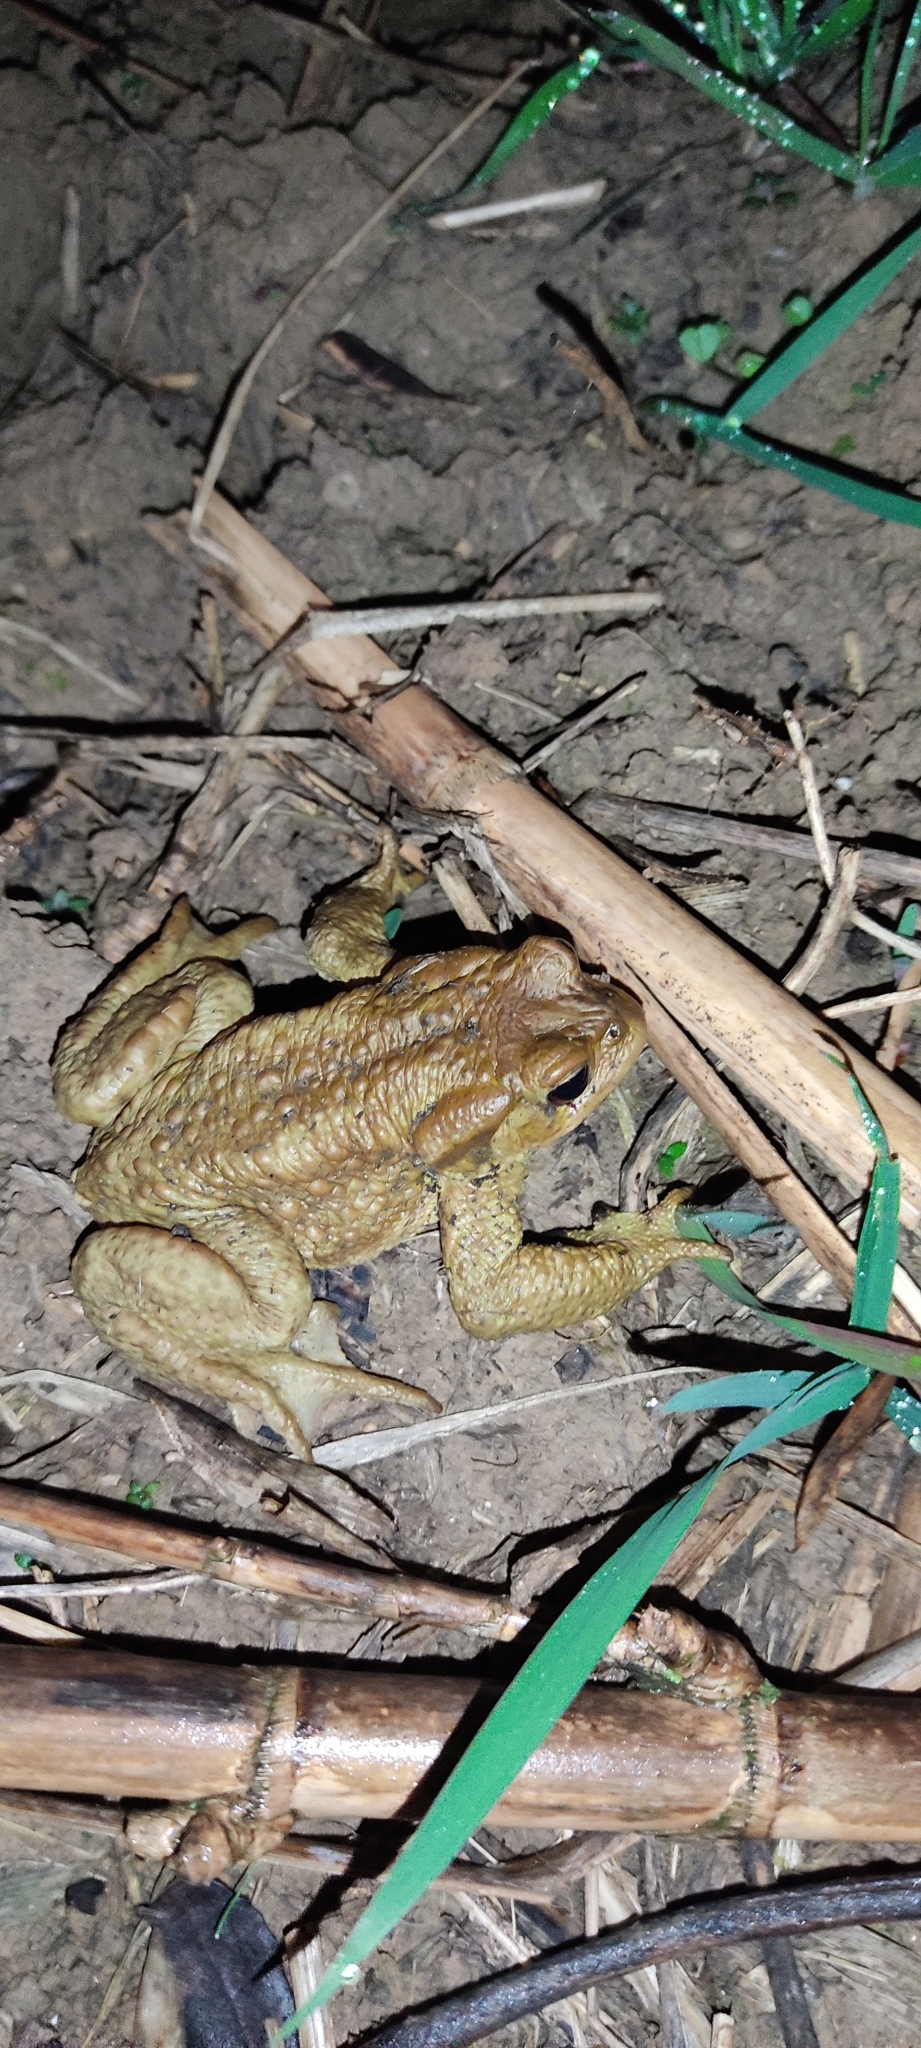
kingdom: Animalia
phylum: Chordata
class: Amphibia
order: Anura
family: Bufonidae
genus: Bufo
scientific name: Bufo spinosus
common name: Western common toad
